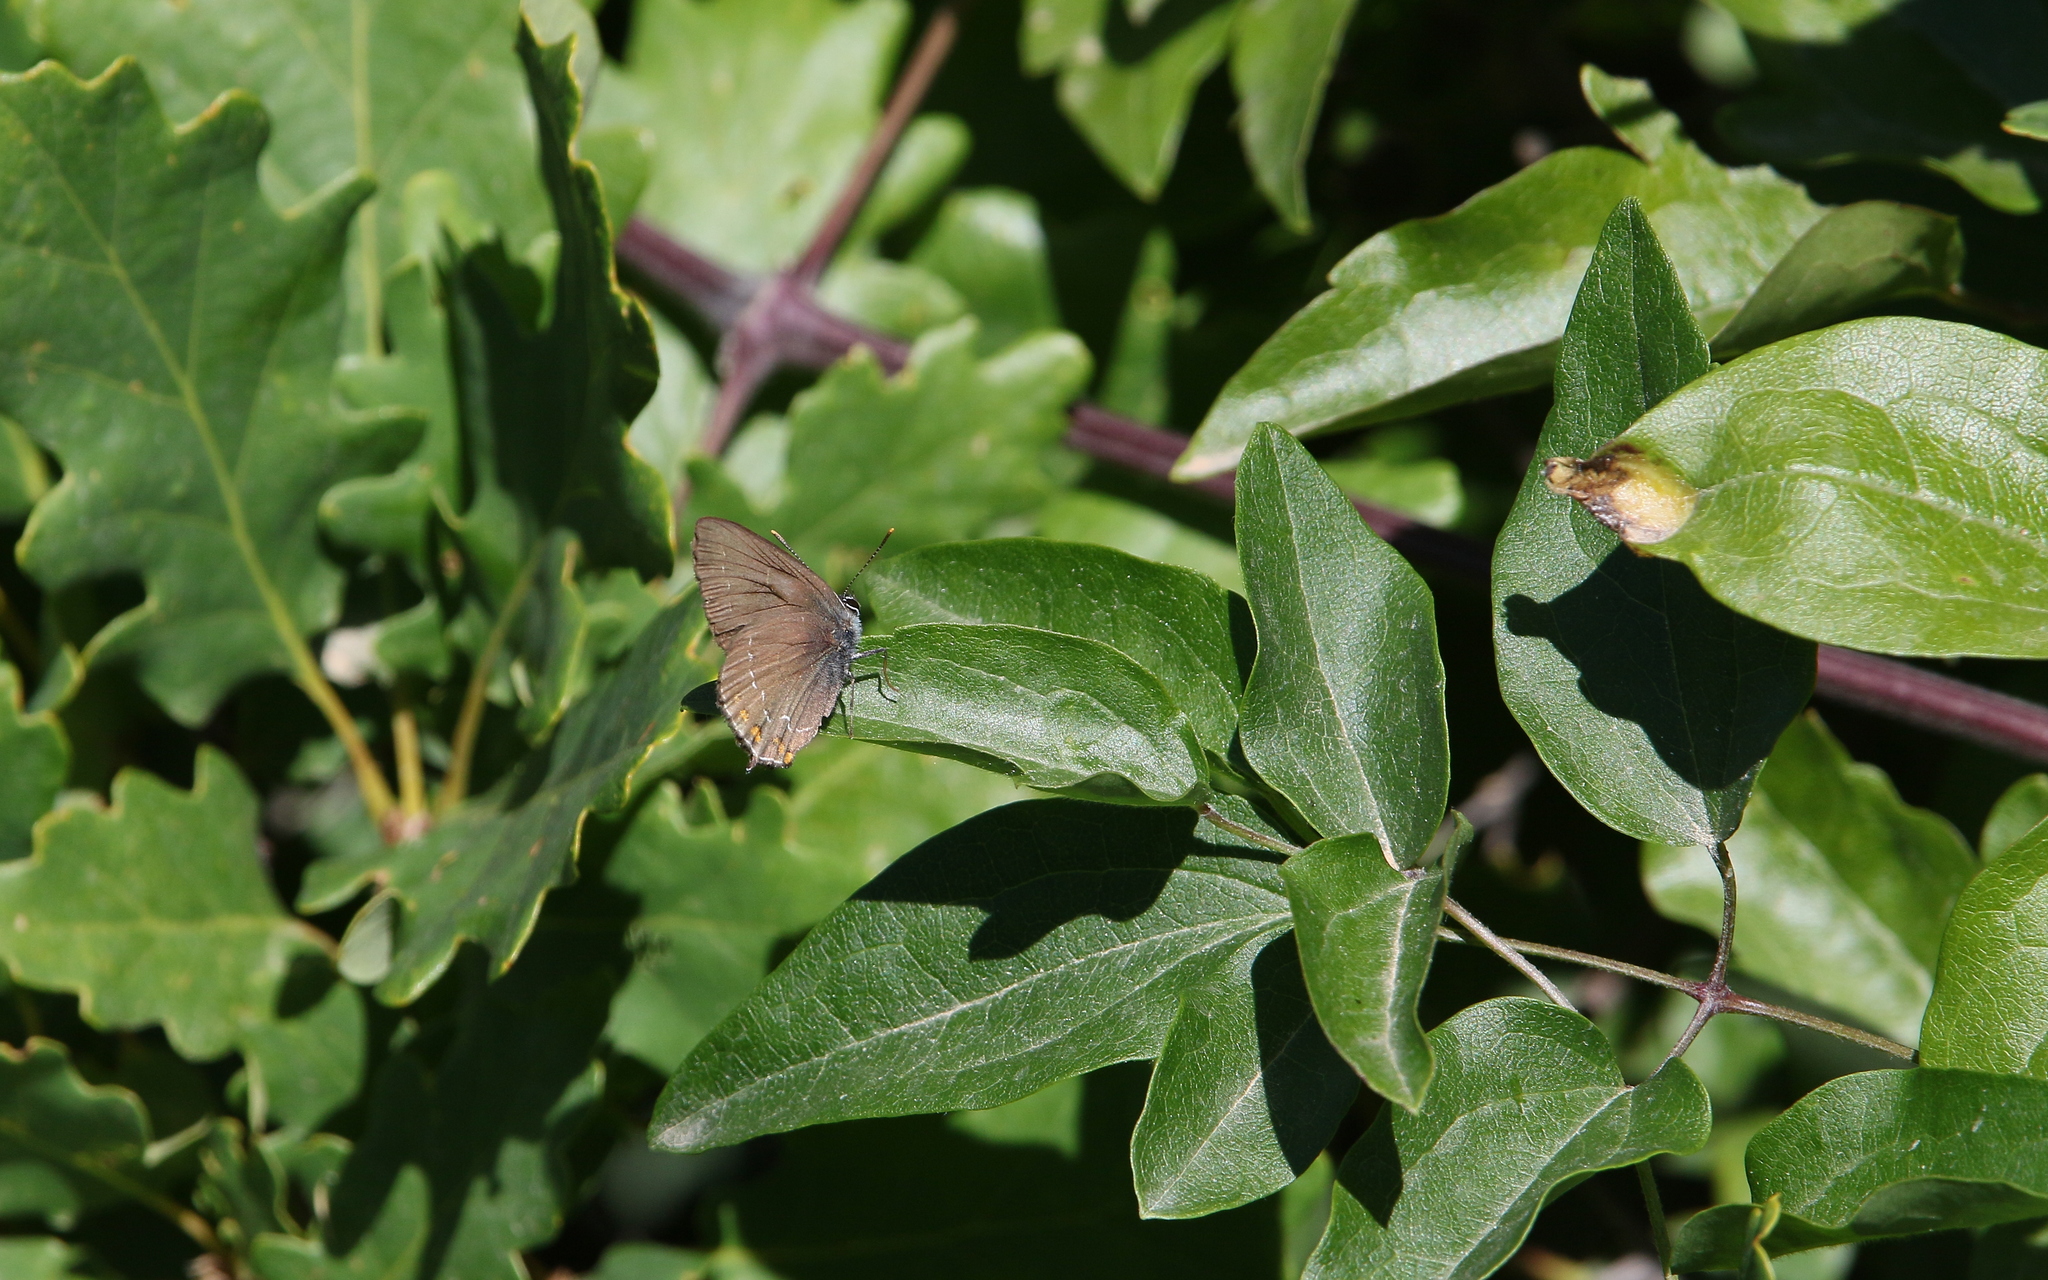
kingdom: Animalia
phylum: Arthropoda
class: Insecta
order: Lepidoptera
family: Lycaenidae
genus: Nordmannia
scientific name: Nordmannia ilicis
